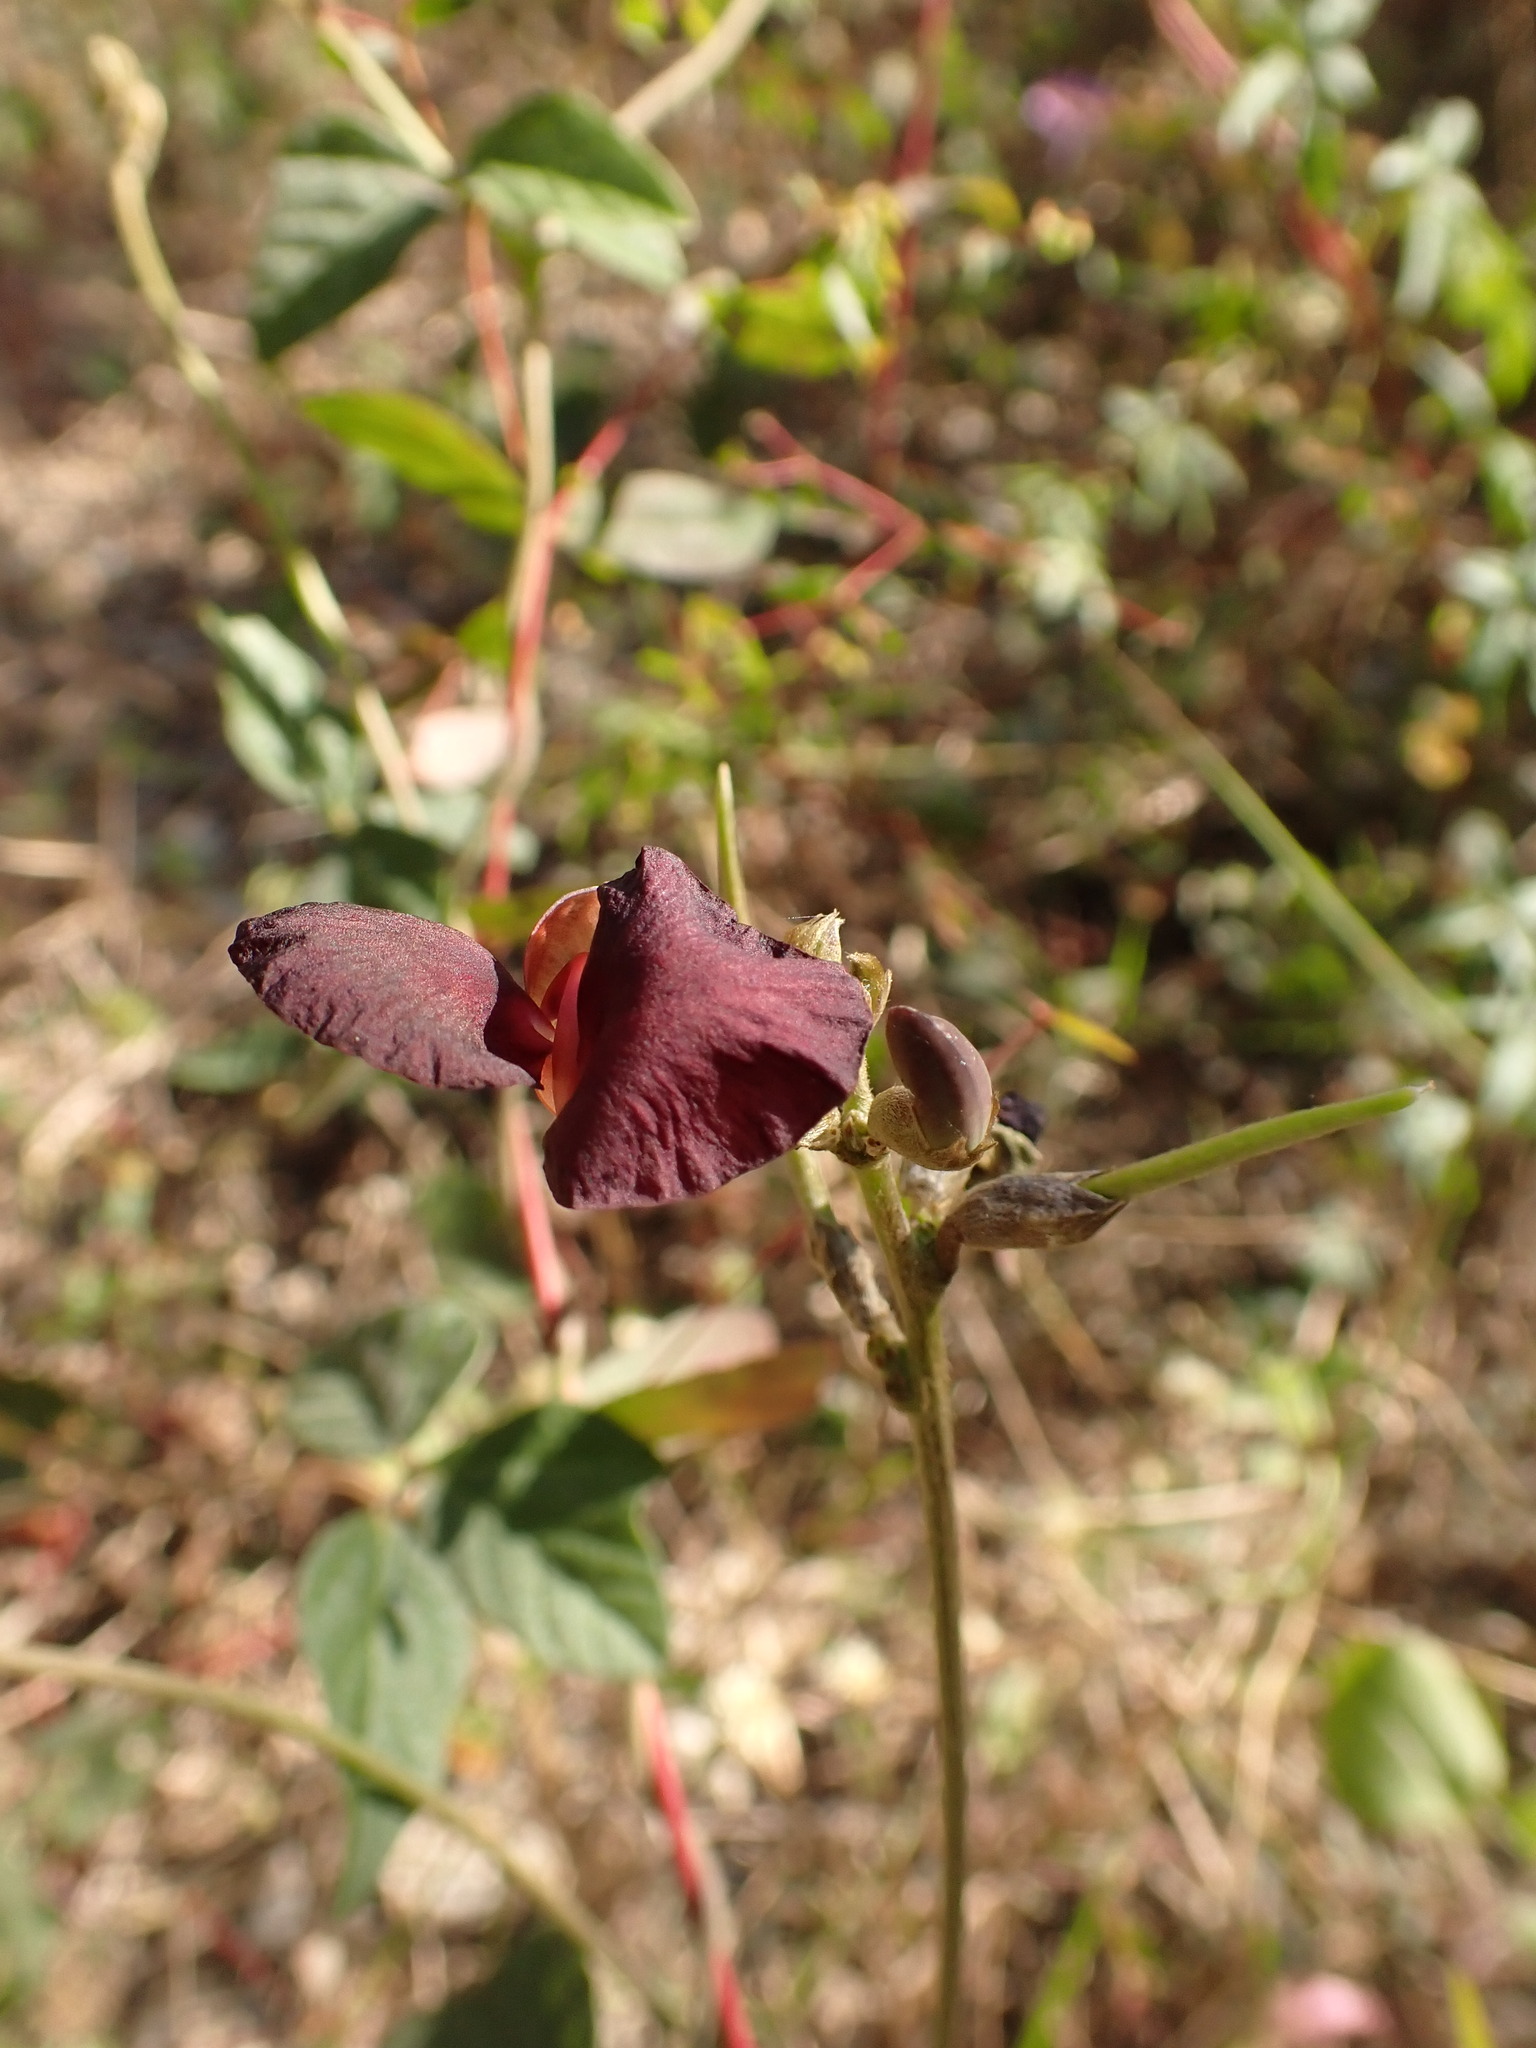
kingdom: Plantae
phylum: Tracheophyta
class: Magnoliopsida
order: Fabales
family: Fabaceae
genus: Macroptilium
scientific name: Macroptilium atropurpureum
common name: Purple bushbean
